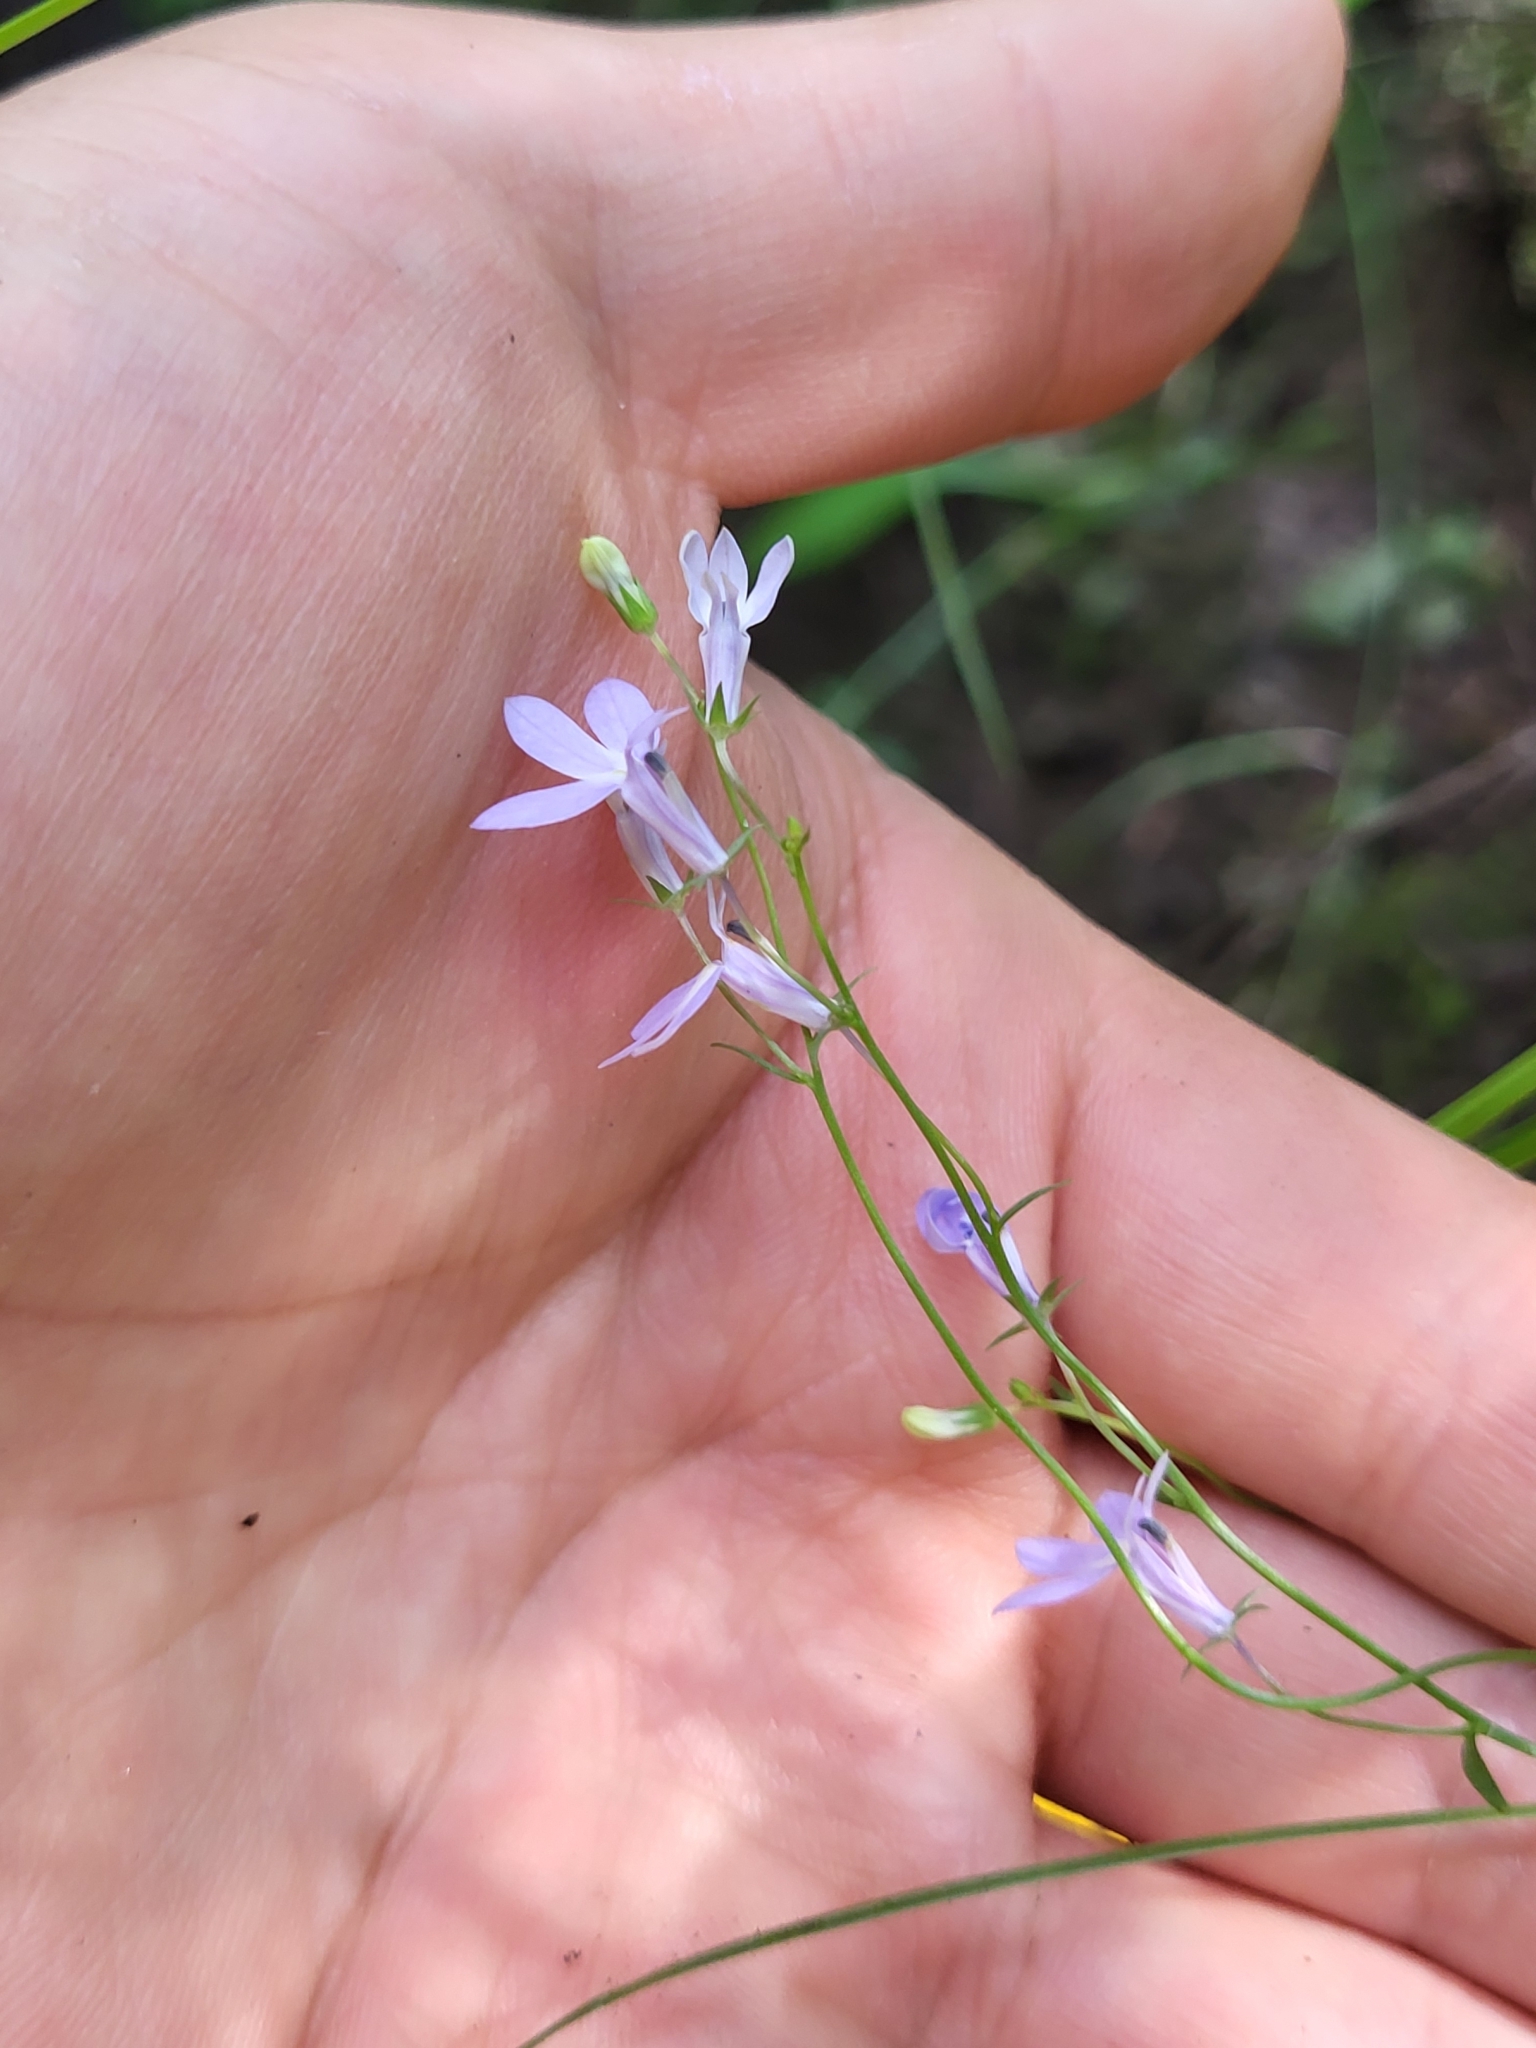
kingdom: Plantae
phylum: Tracheophyta
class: Magnoliopsida
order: Asterales
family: Campanulaceae
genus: Lobelia
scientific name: Lobelia nuttallii
